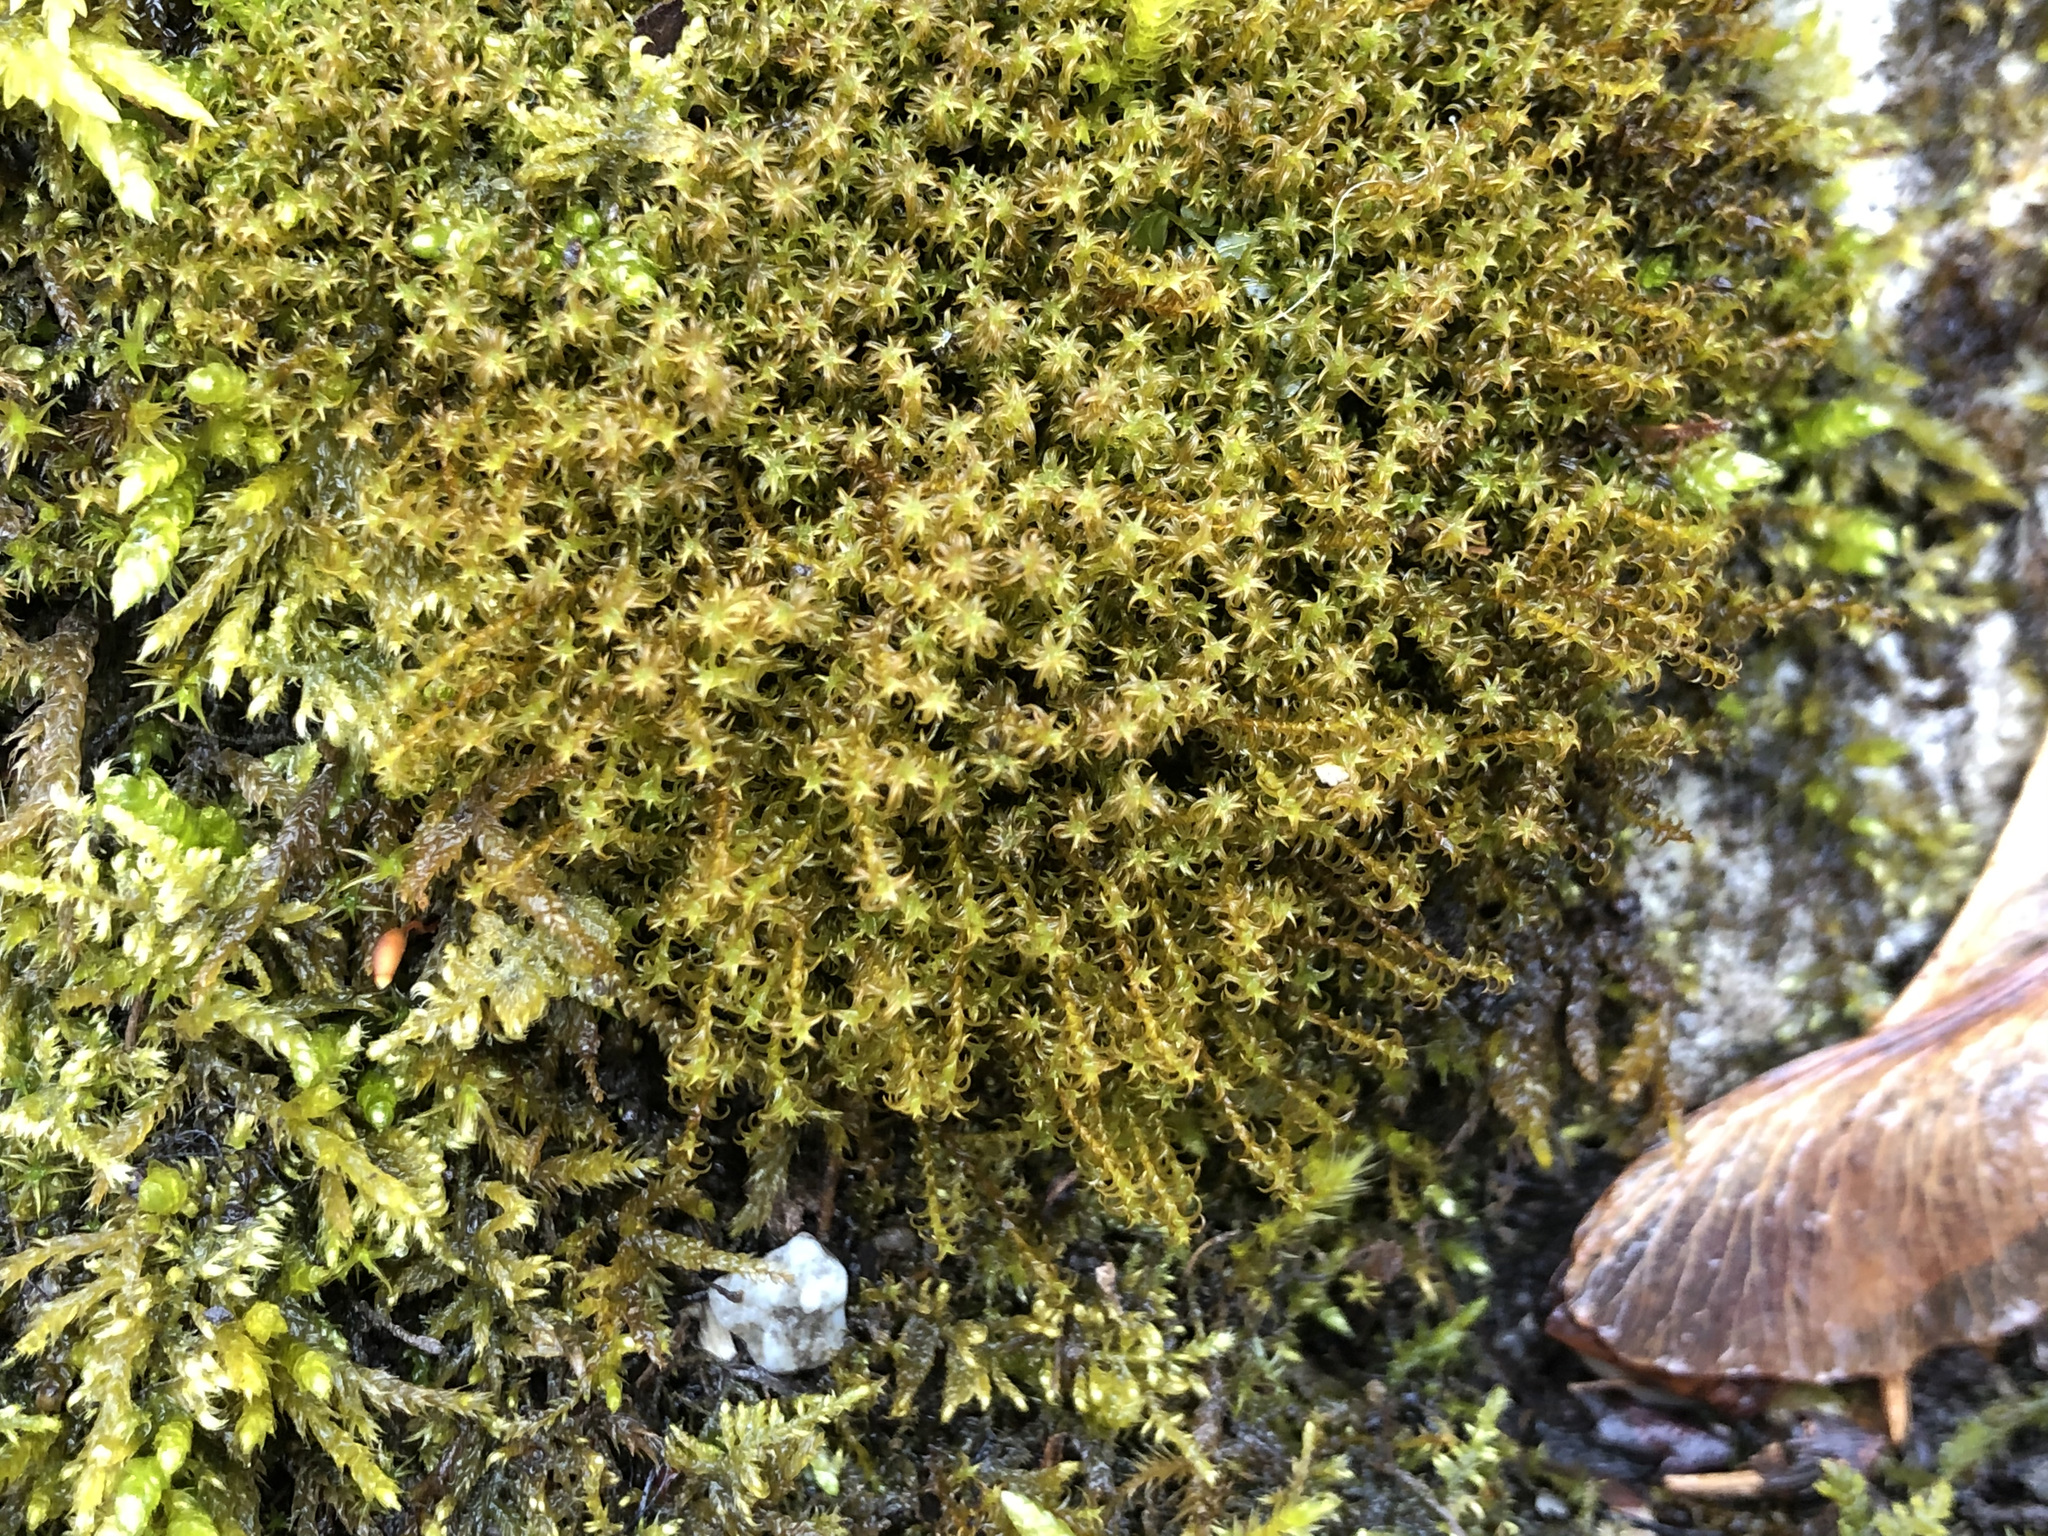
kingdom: Plantae
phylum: Bryophyta
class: Bryopsida
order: Pottiales
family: Pottiaceae
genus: Geheebia
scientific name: Geheebia ferruginea
